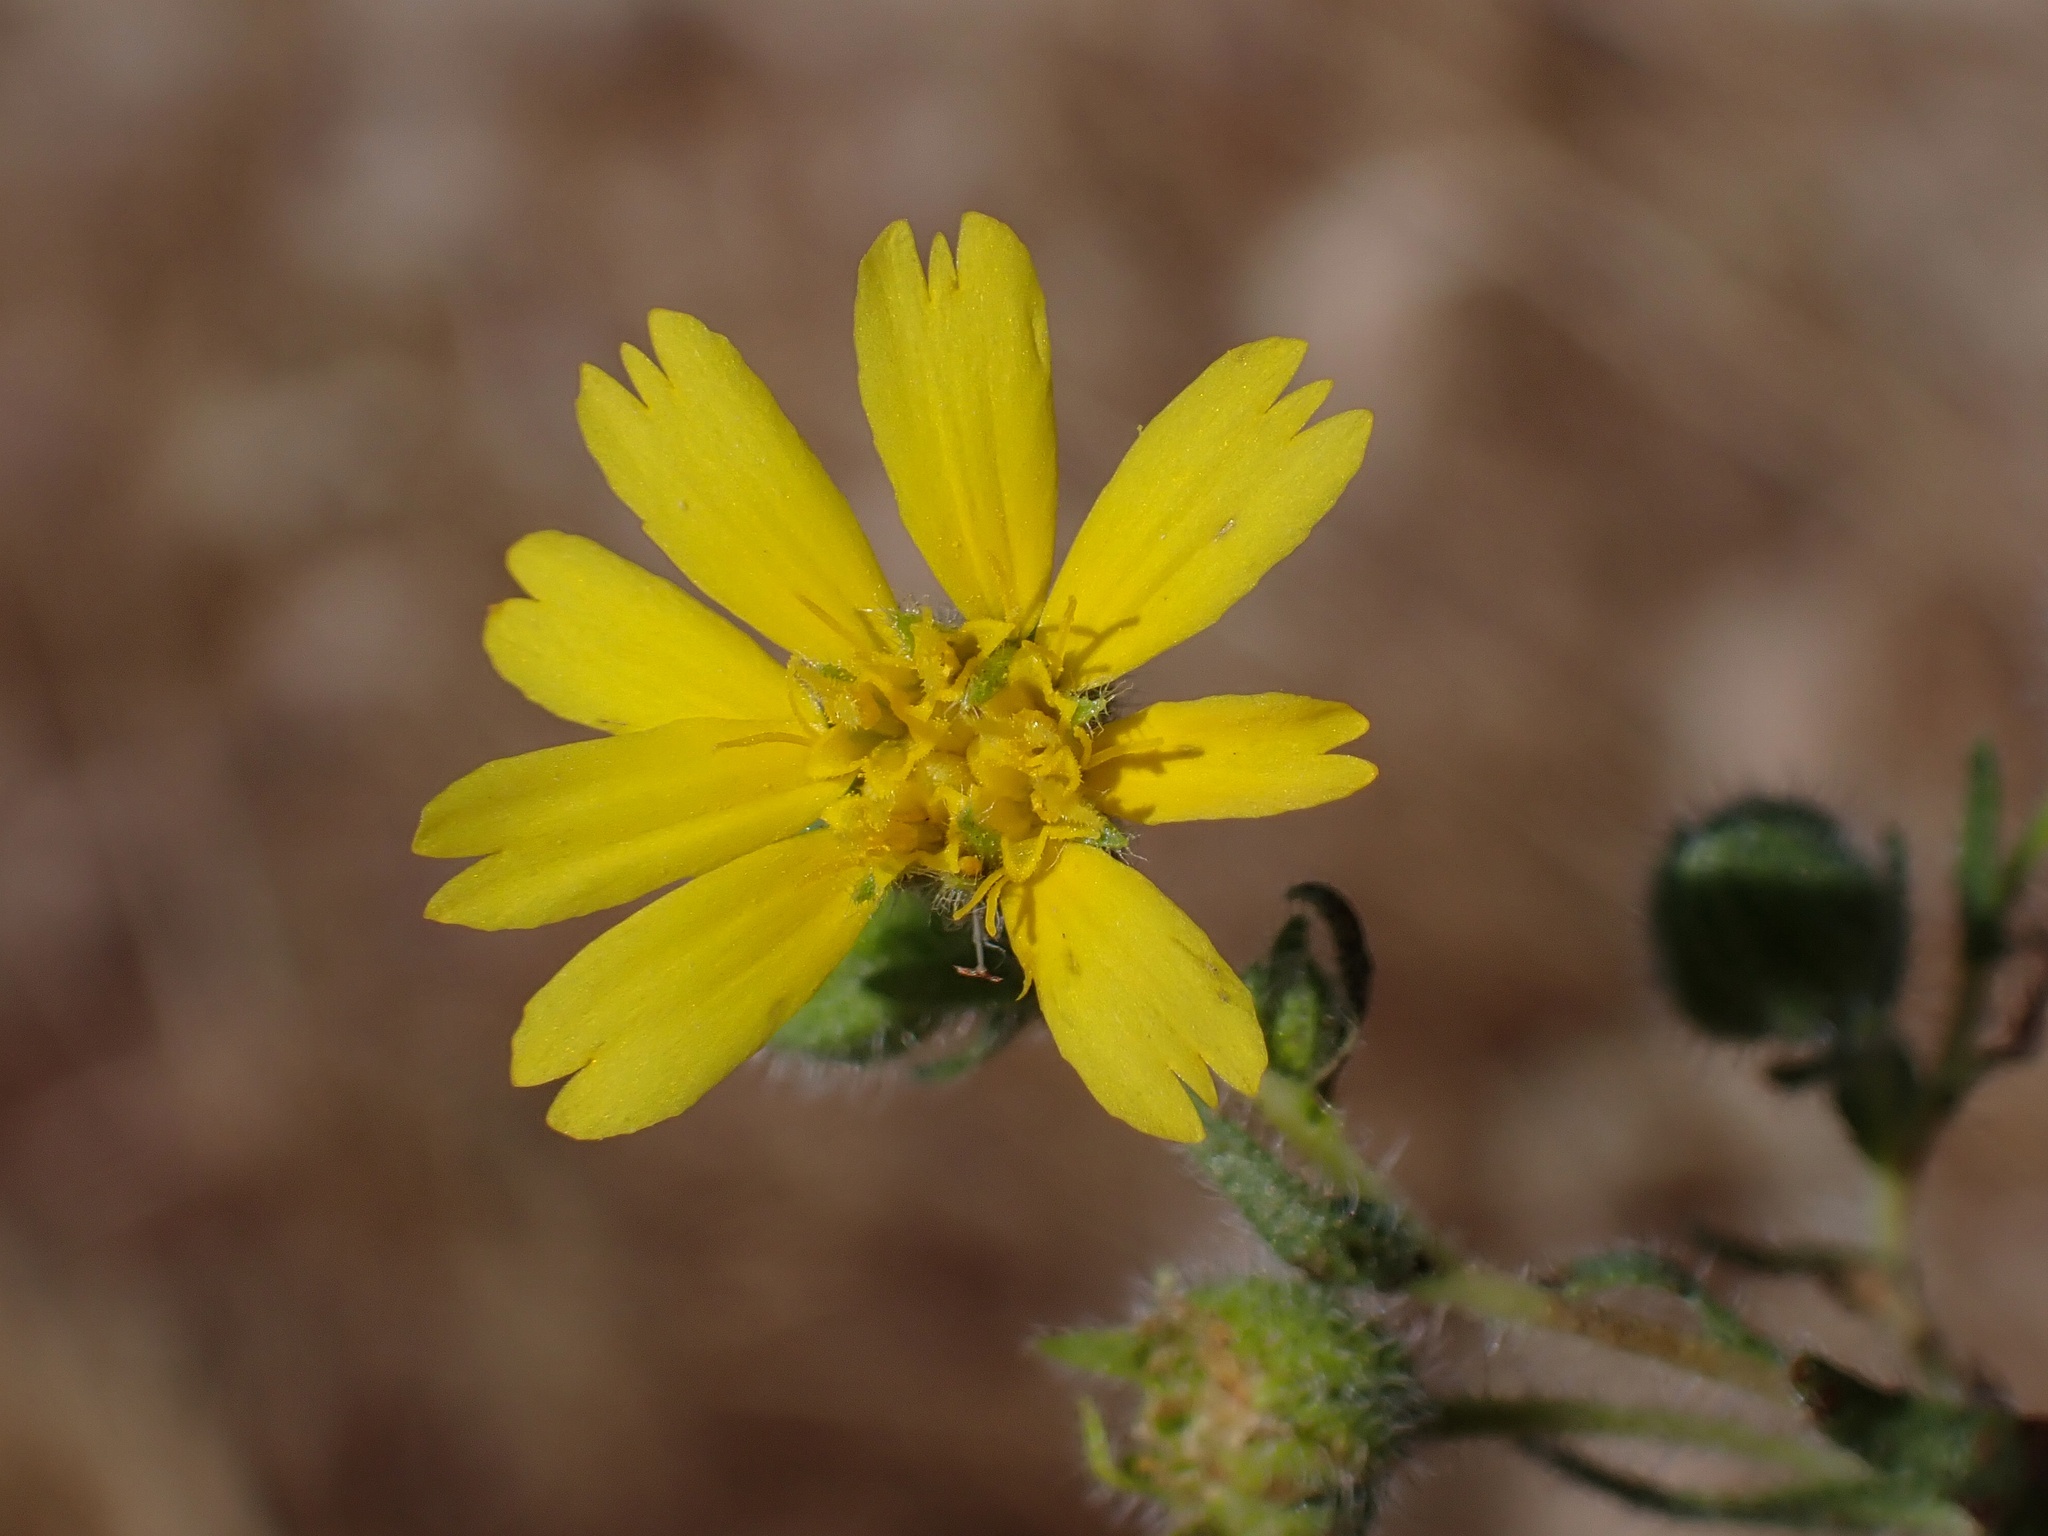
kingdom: Plantae
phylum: Tracheophyta
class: Magnoliopsida
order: Asterales
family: Asteraceae
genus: Deinandra
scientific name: Deinandra pallida
